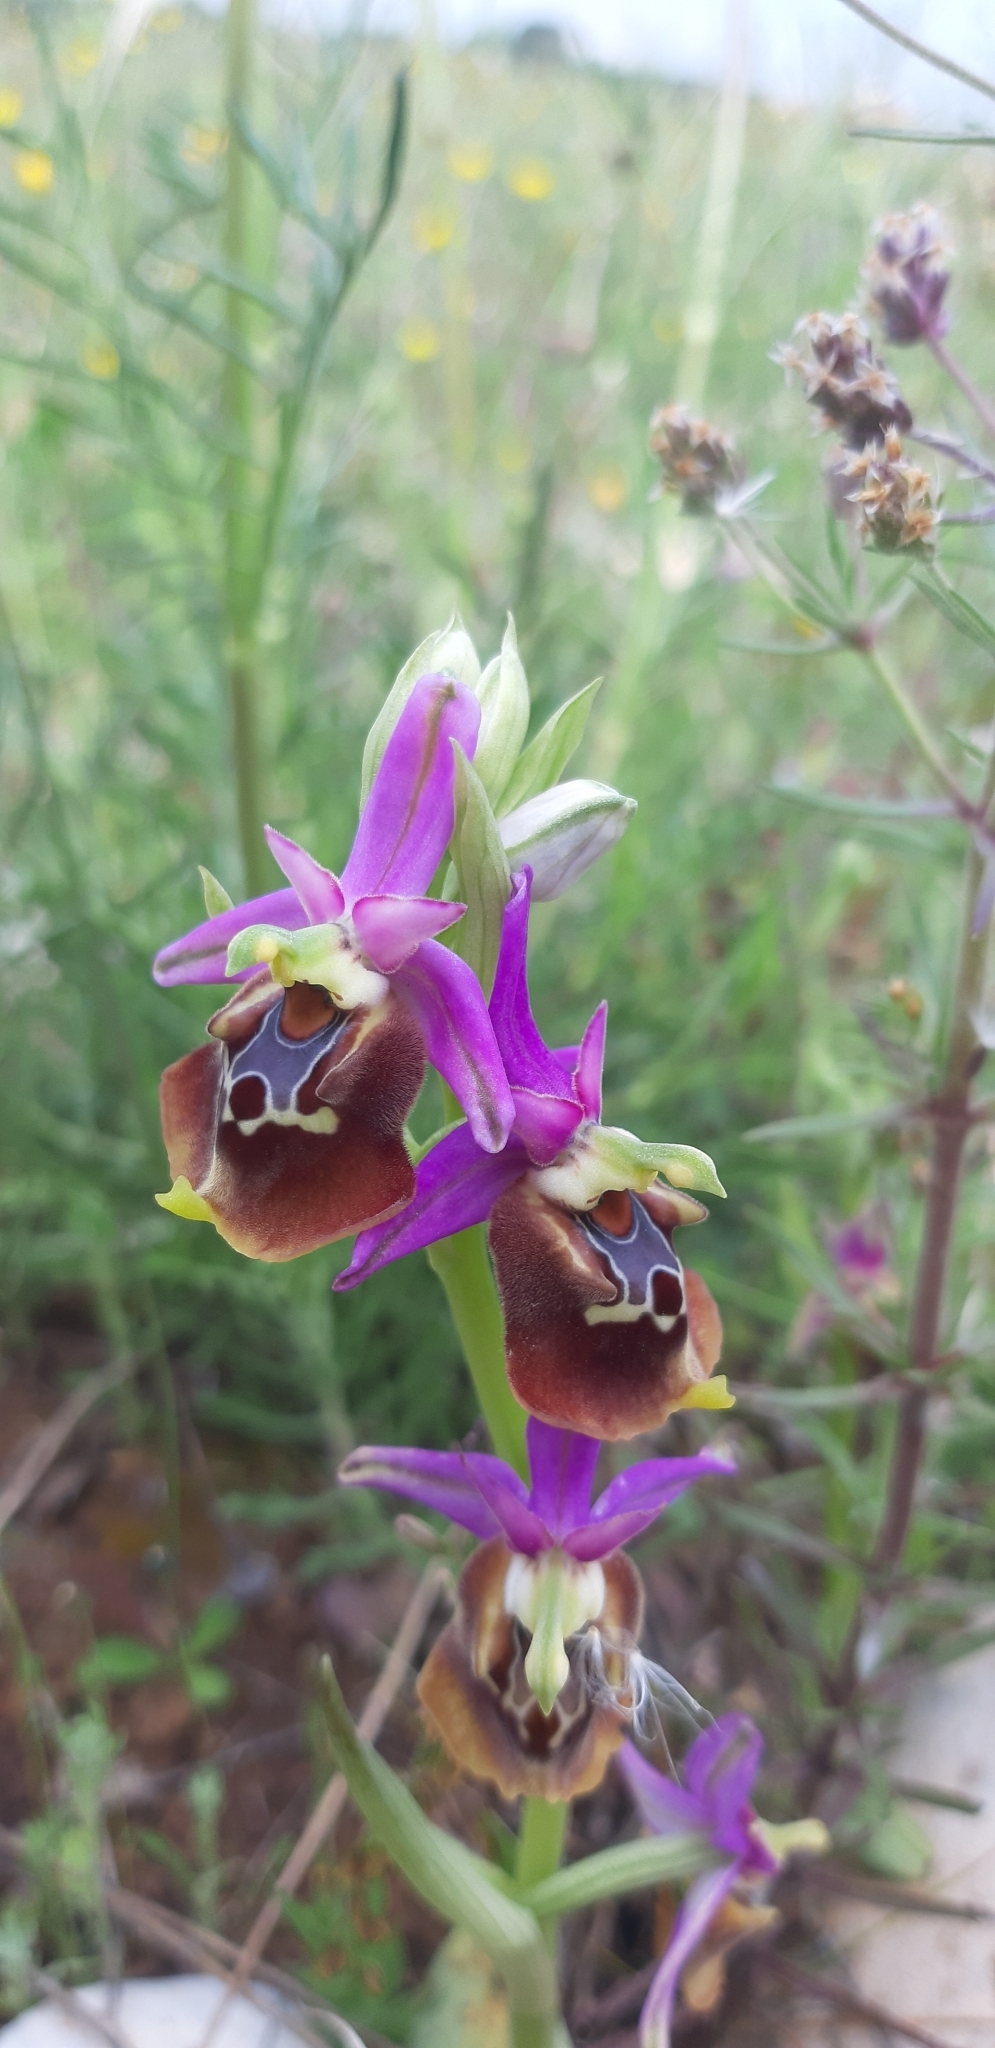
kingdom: Plantae
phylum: Tracheophyta
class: Liliopsida
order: Asparagales
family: Orchidaceae
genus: Ophrys
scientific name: Ophrys holosericea
